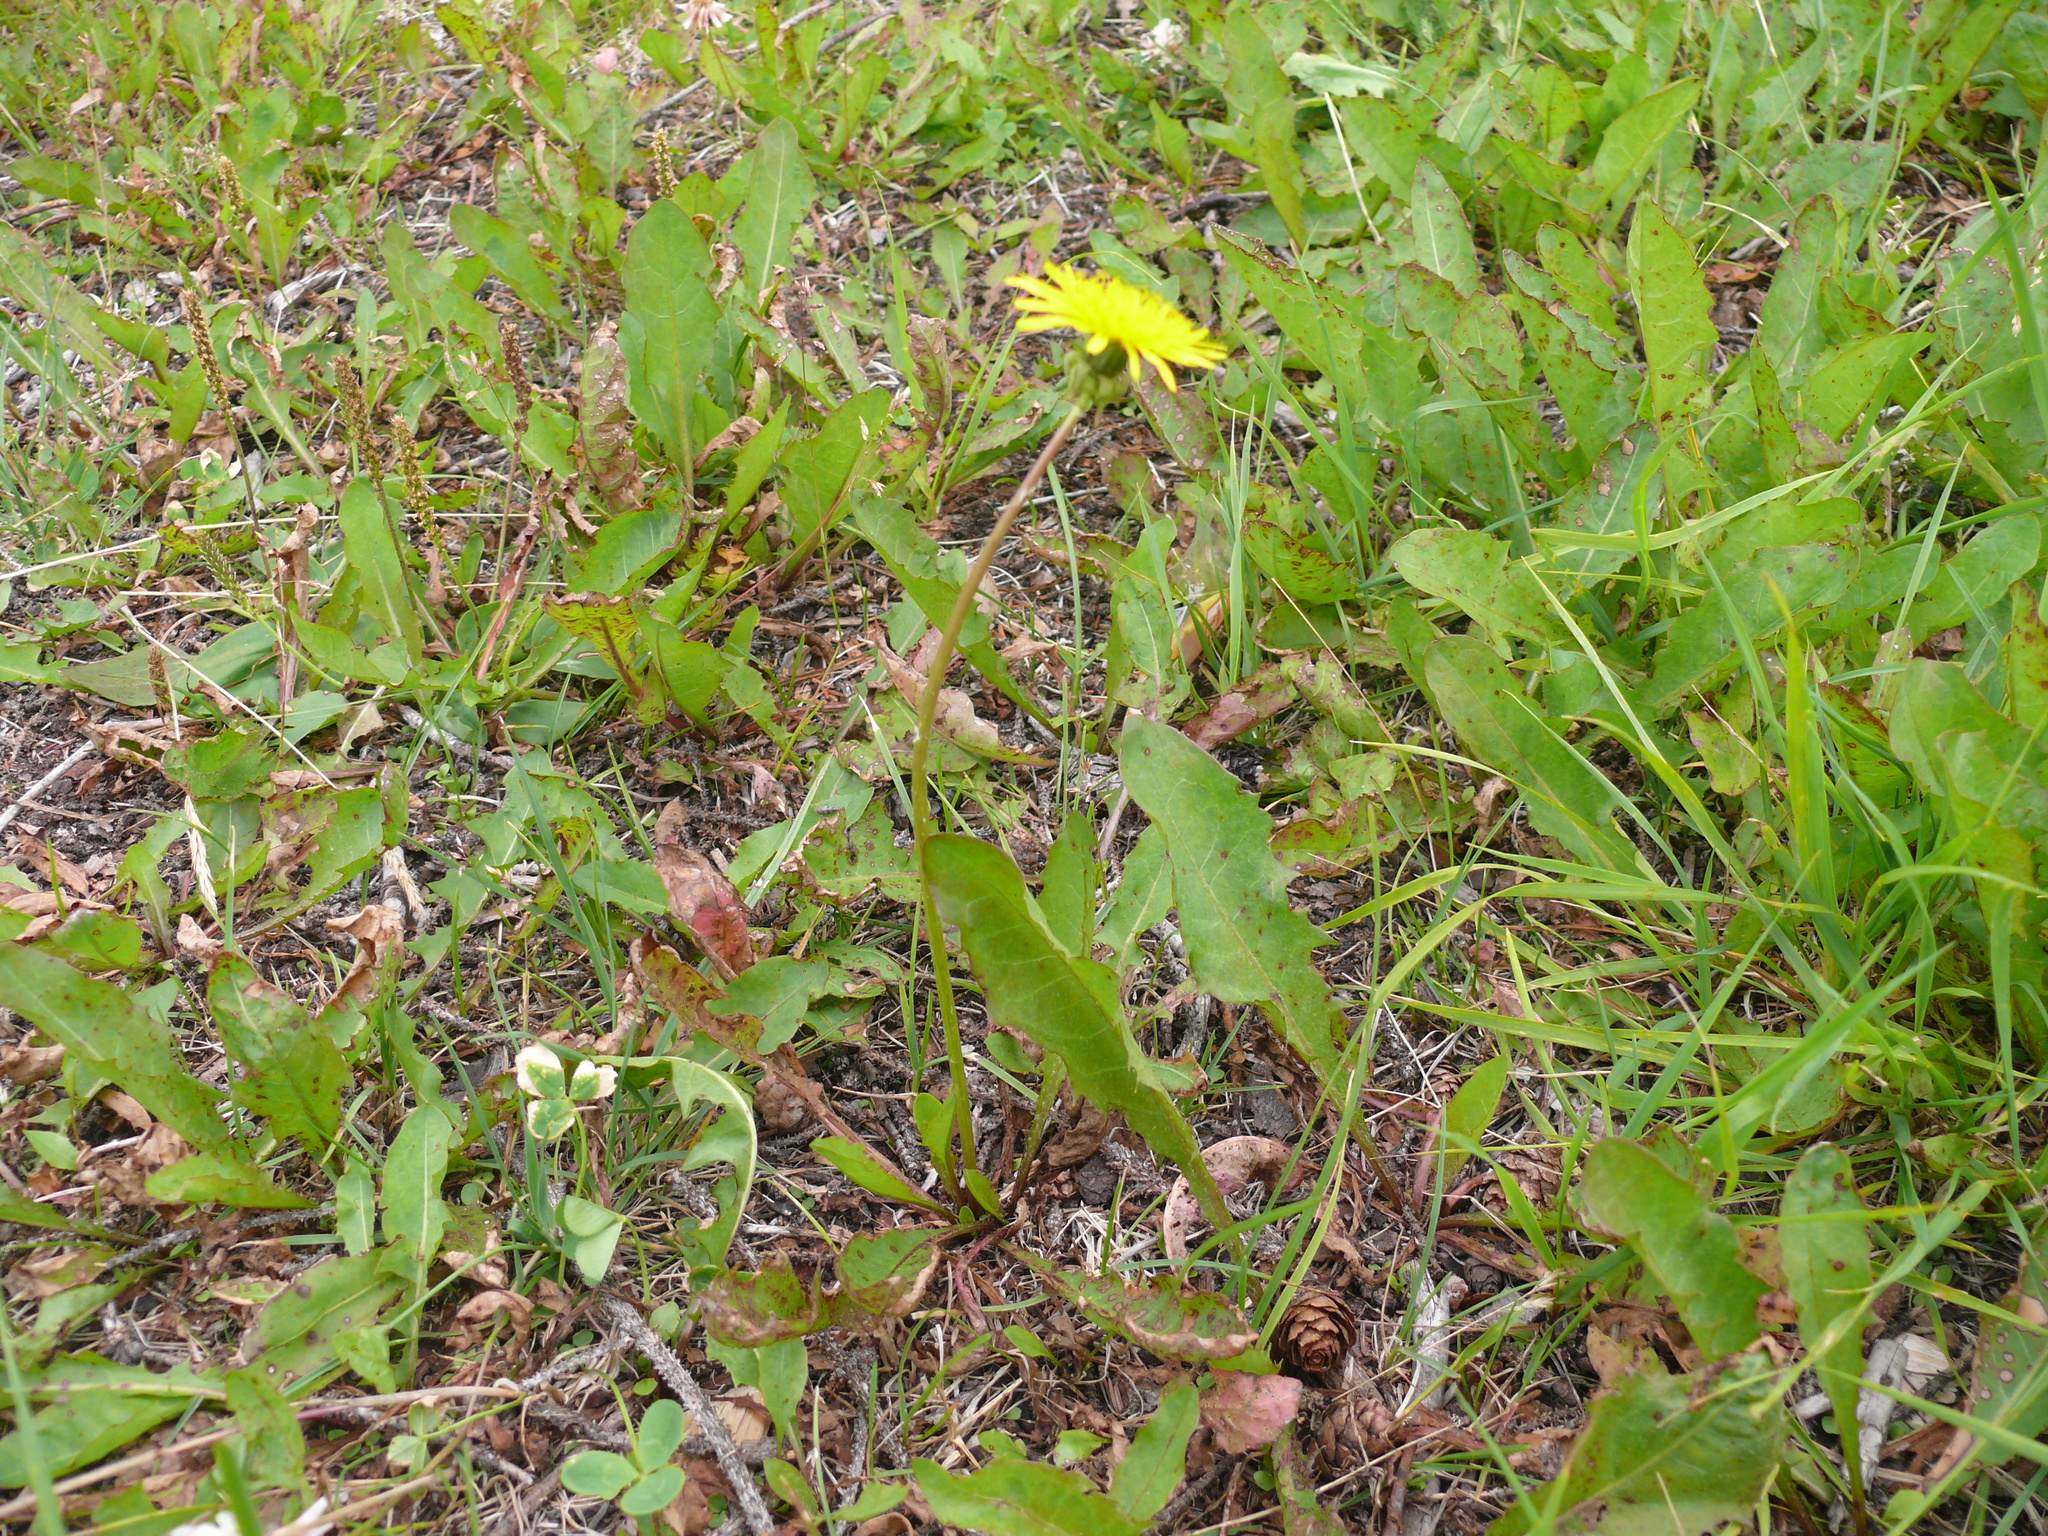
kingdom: Plantae
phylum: Tracheophyta
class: Magnoliopsida
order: Asterales
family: Asteraceae
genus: Taraxacum
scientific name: Taraxacum officinale
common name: Common dandelion
